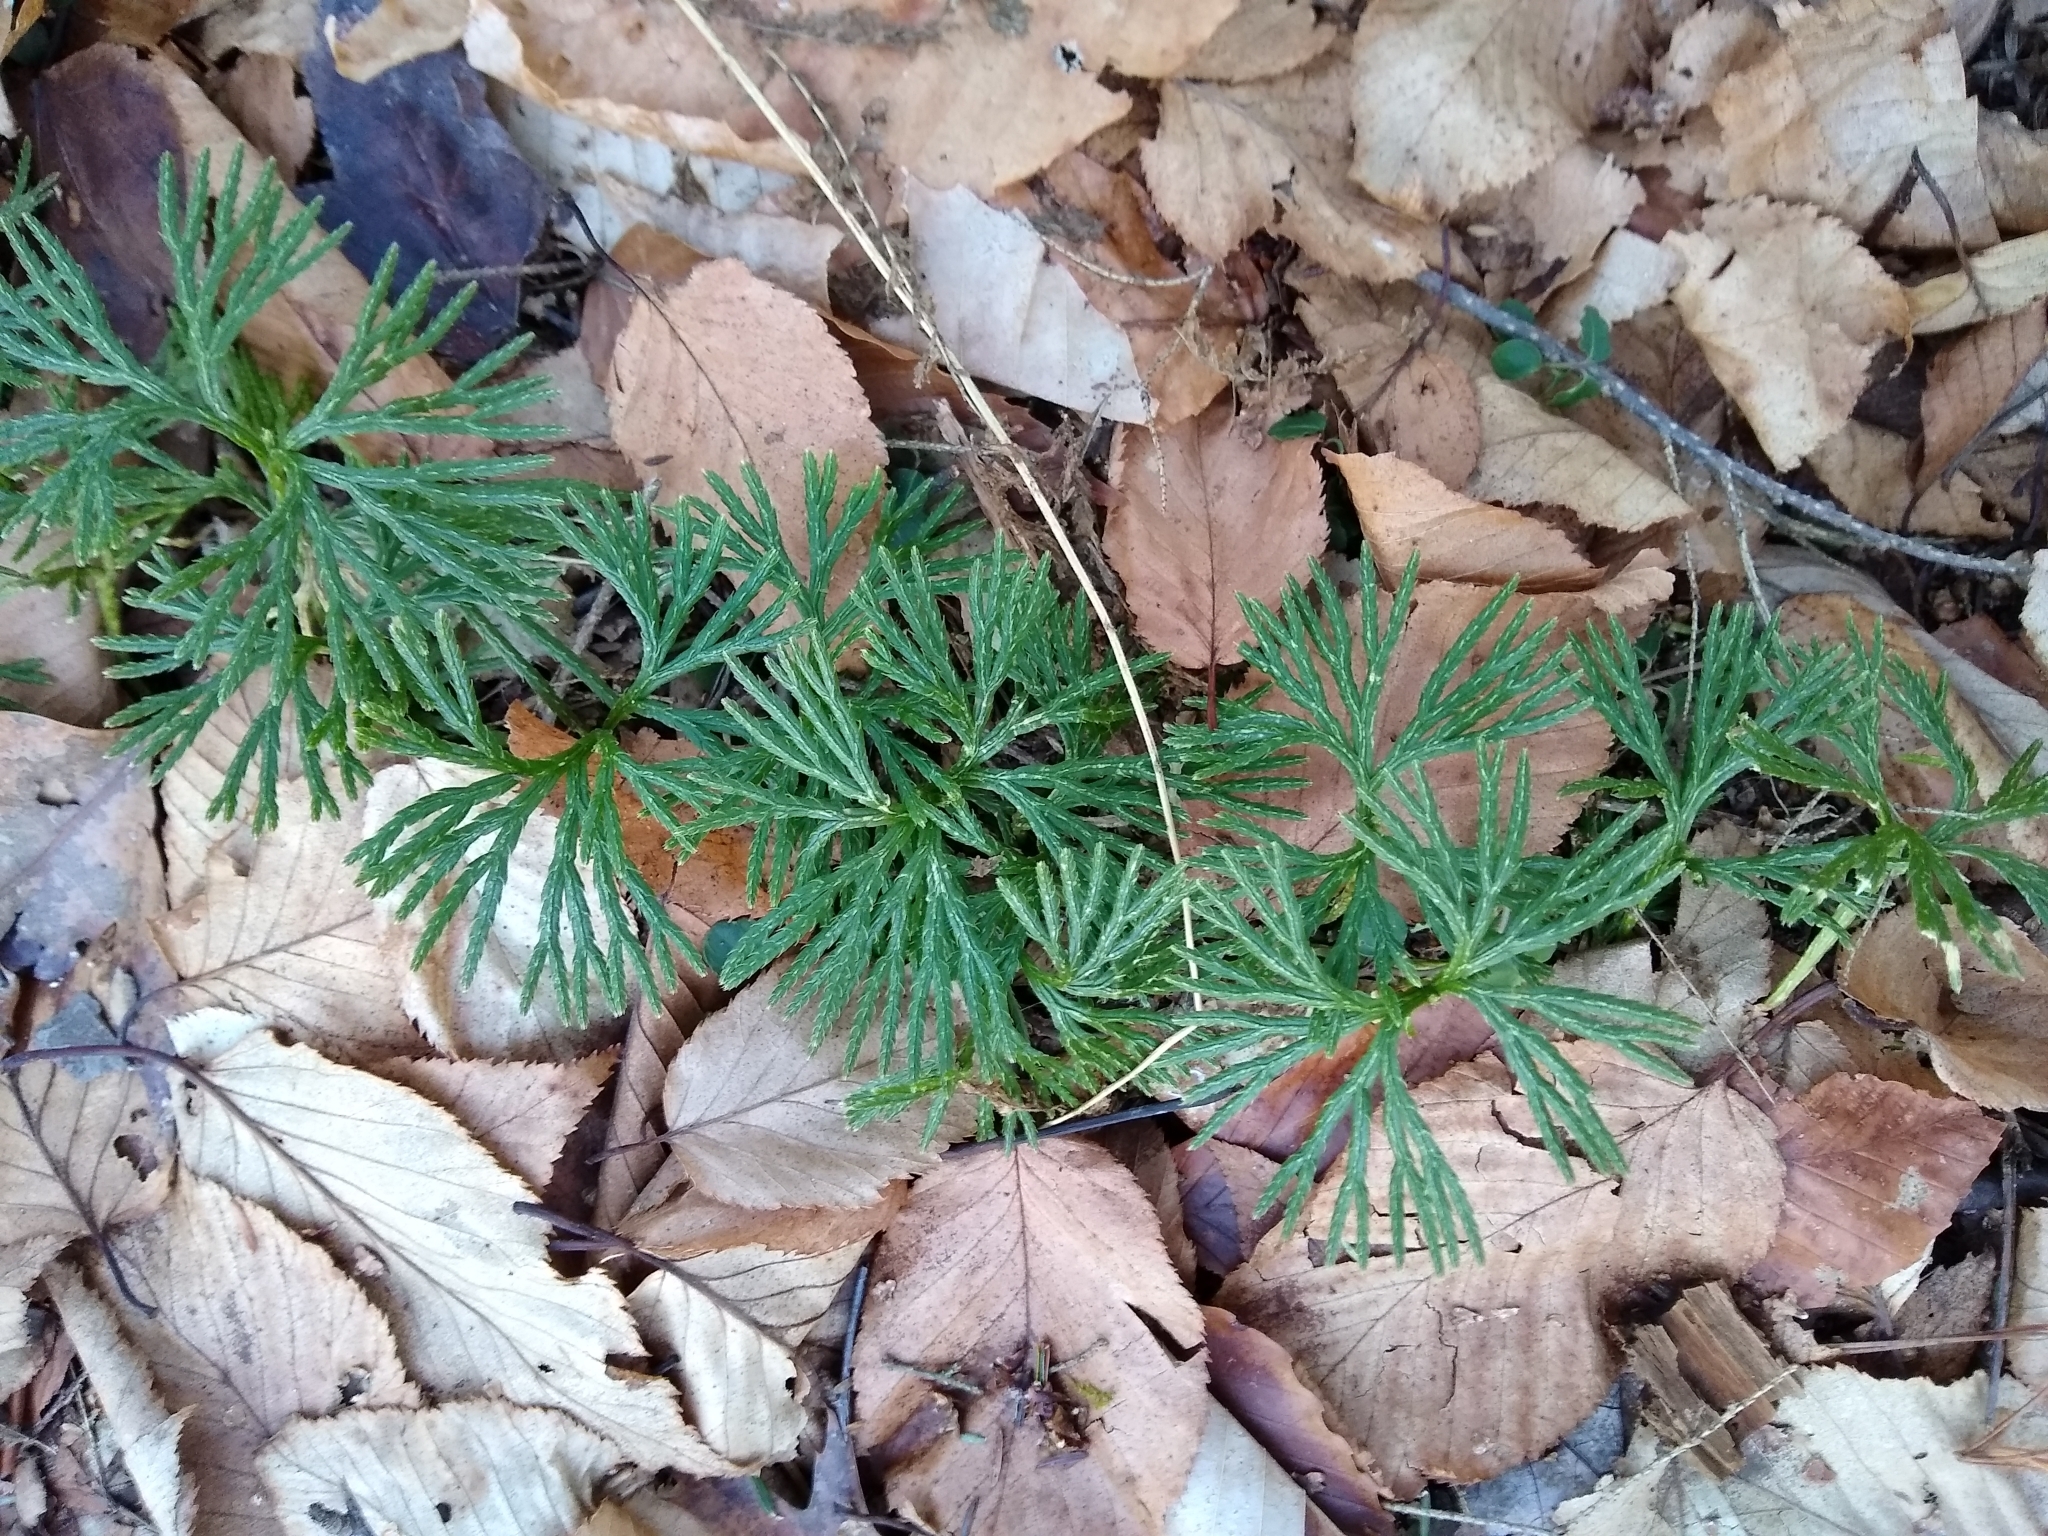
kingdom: Plantae
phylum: Tracheophyta
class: Lycopodiopsida
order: Lycopodiales
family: Lycopodiaceae
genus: Diphasiastrum
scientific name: Diphasiastrum digitatum
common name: Southern running-pine
